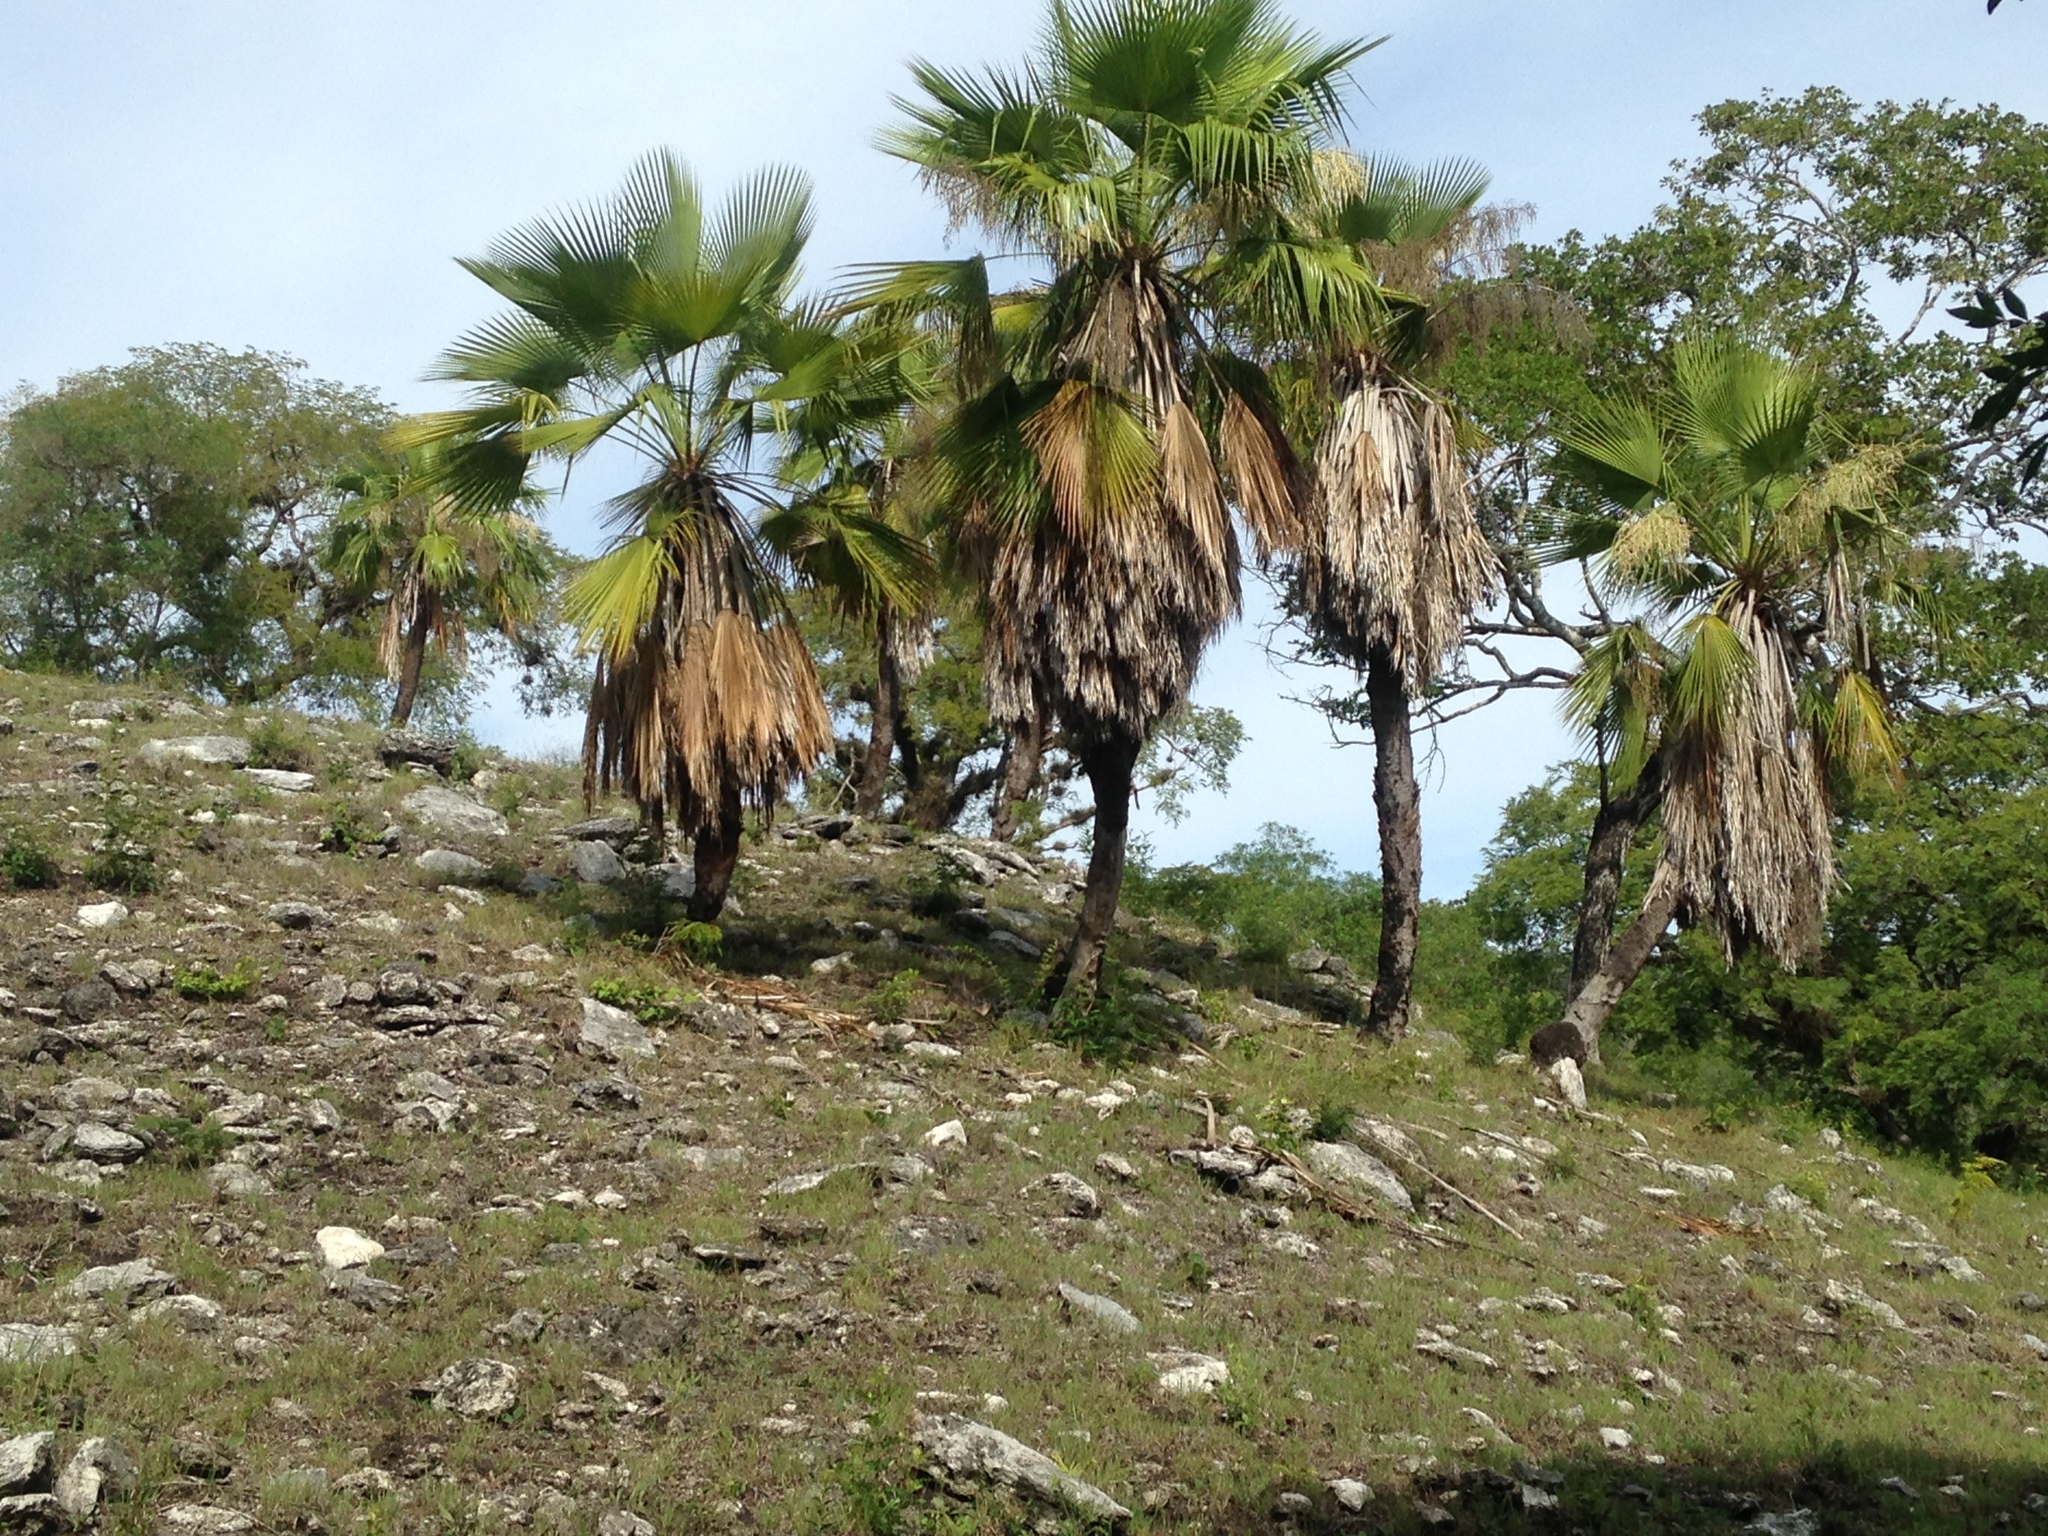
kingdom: Plantae
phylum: Tracheophyta
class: Liliopsida
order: Arecales
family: Arecaceae
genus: Brahea
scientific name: Brahea dulcis
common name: Apak palm
